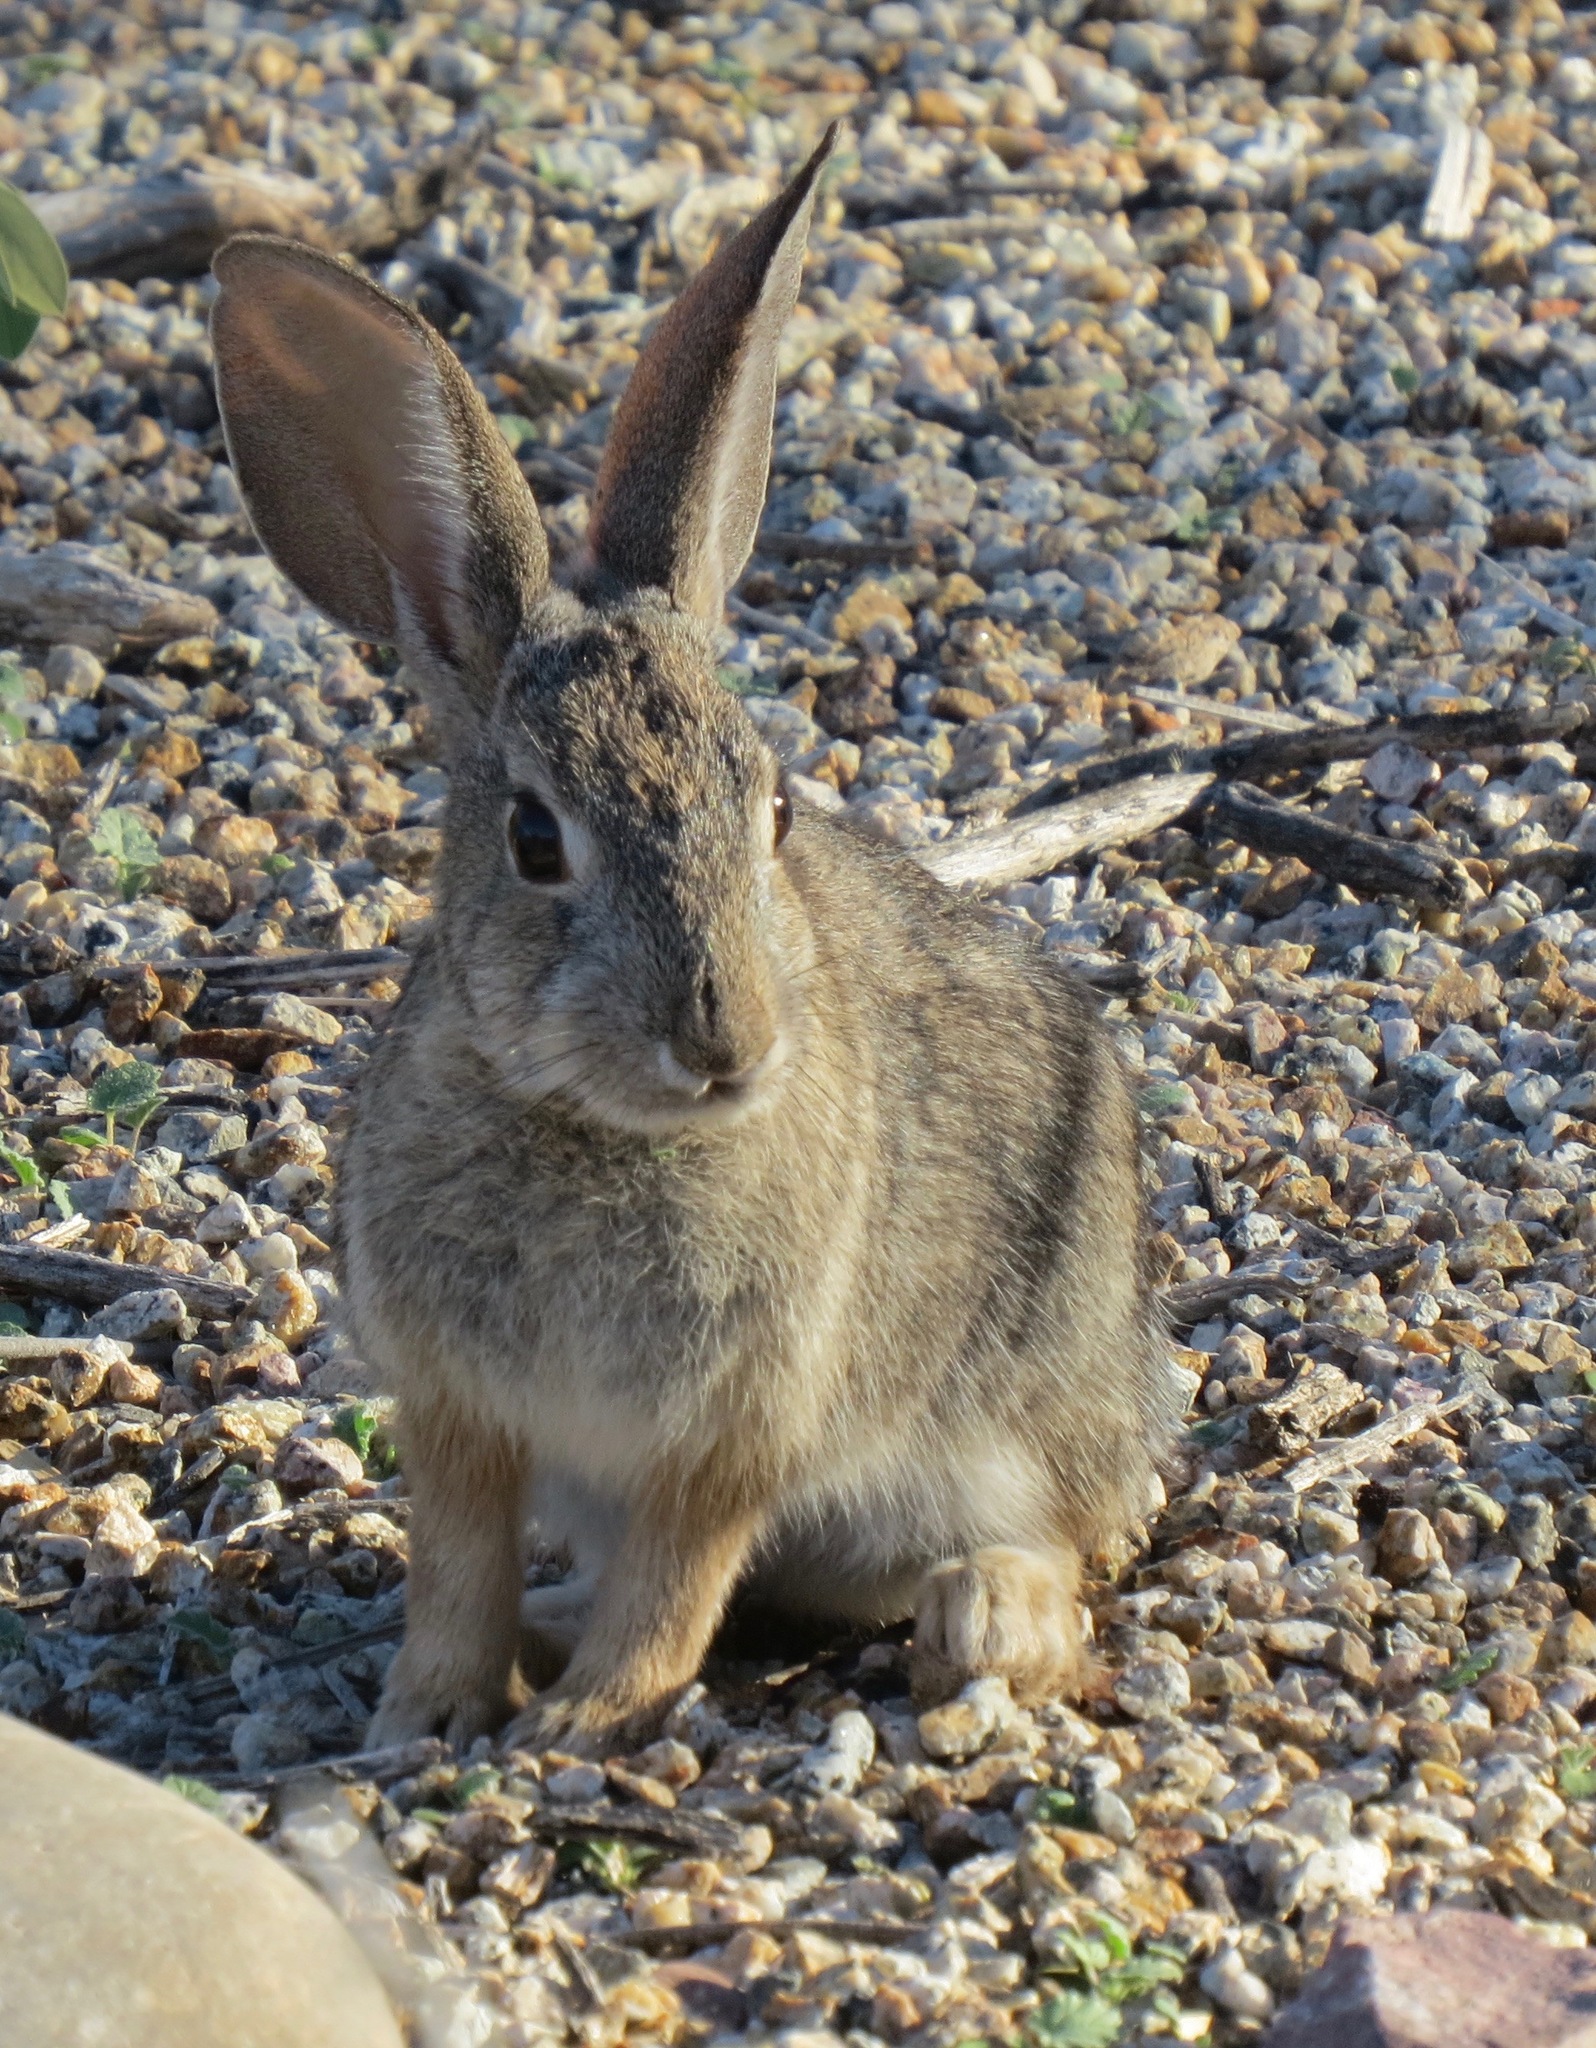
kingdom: Animalia
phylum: Chordata
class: Mammalia
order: Lagomorpha
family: Leporidae
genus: Sylvilagus
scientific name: Sylvilagus audubonii
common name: Desert cottontail
